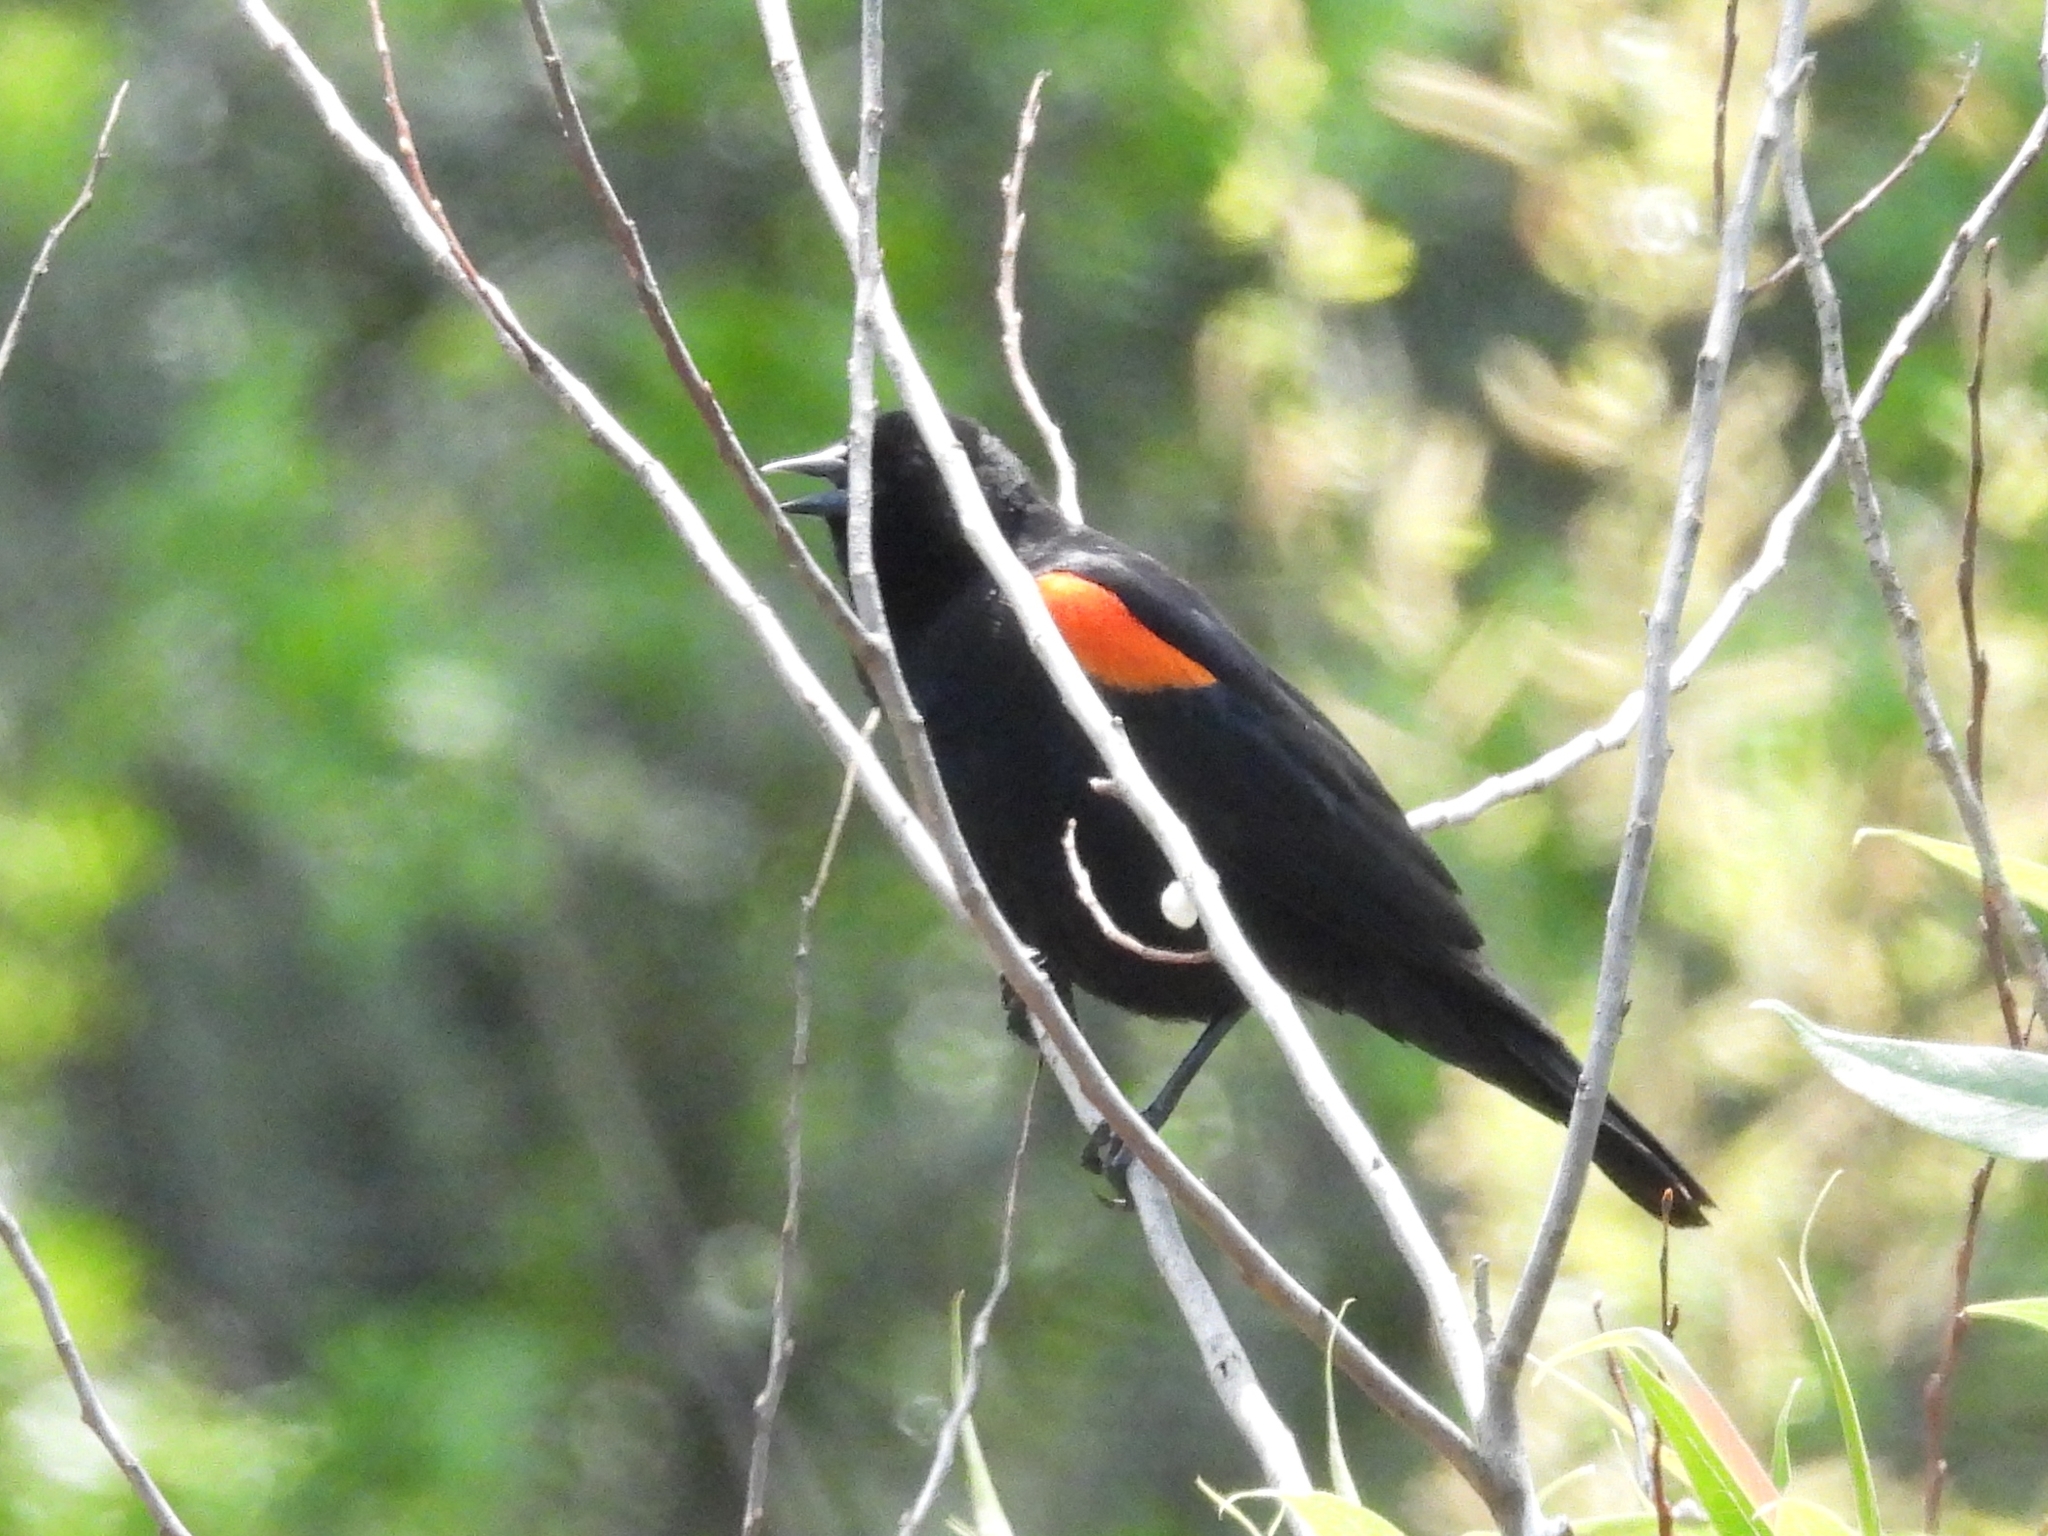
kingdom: Animalia
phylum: Chordata
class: Aves
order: Passeriformes
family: Icteridae
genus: Agelaius
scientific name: Agelaius phoeniceus
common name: Red-winged blackbird
